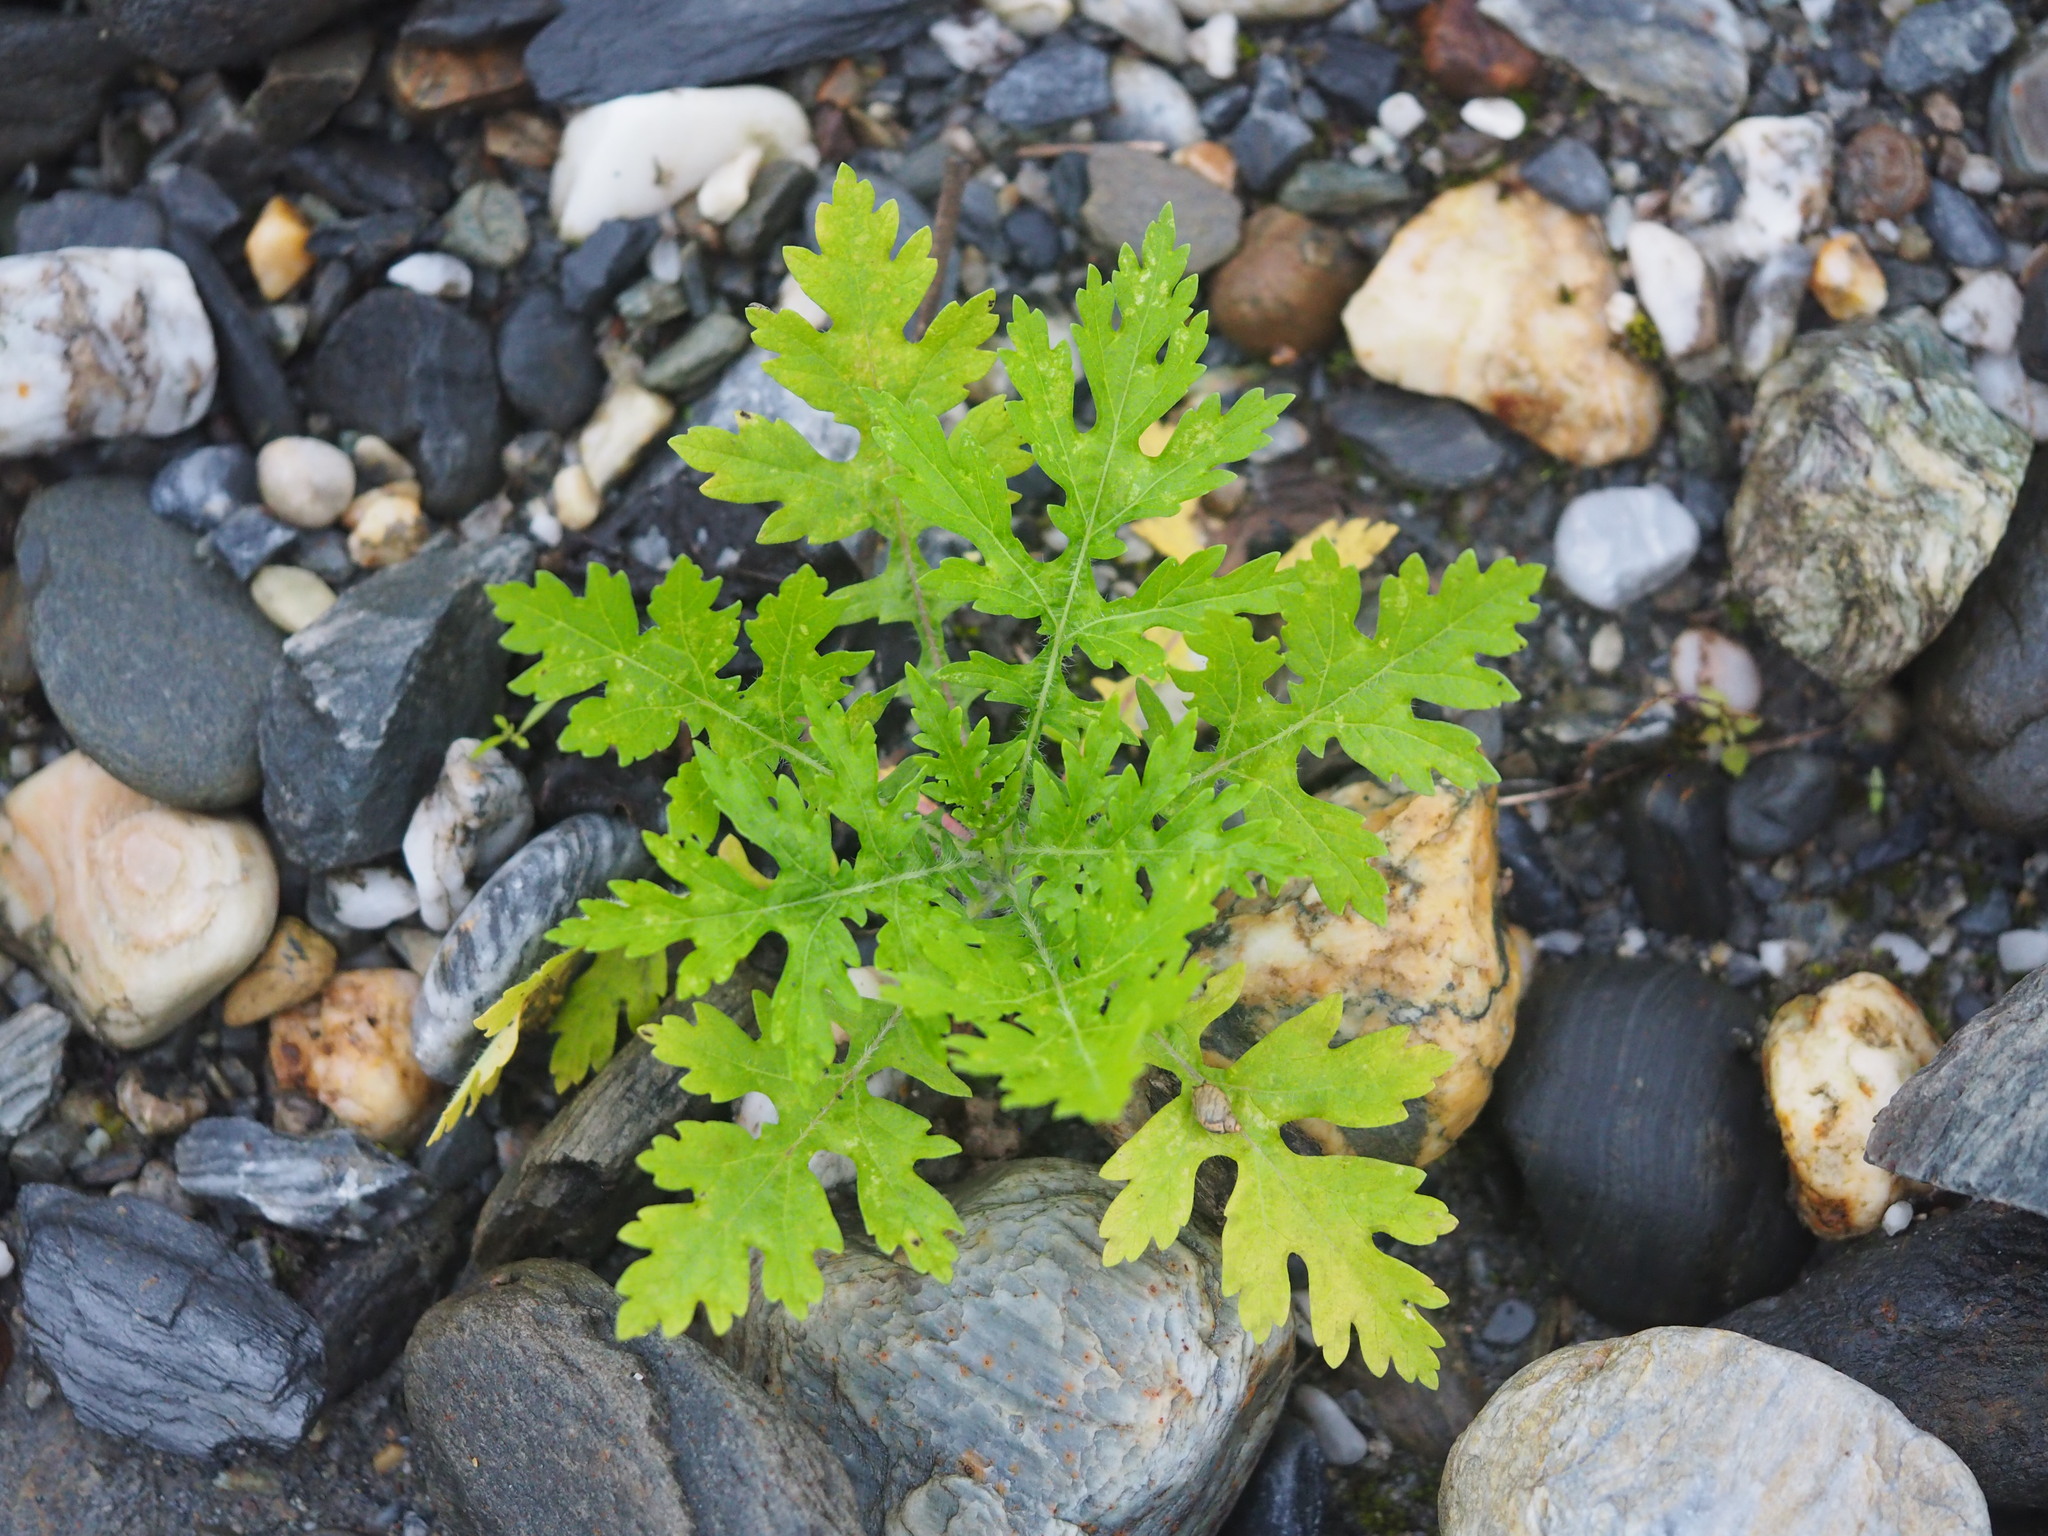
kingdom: Plantae
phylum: Tracheophyta
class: Magnoliopsida
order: Asterales
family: Asteraceae
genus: Parthenium
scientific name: Parthenium hysterophorus
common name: Santa maria feverfew
